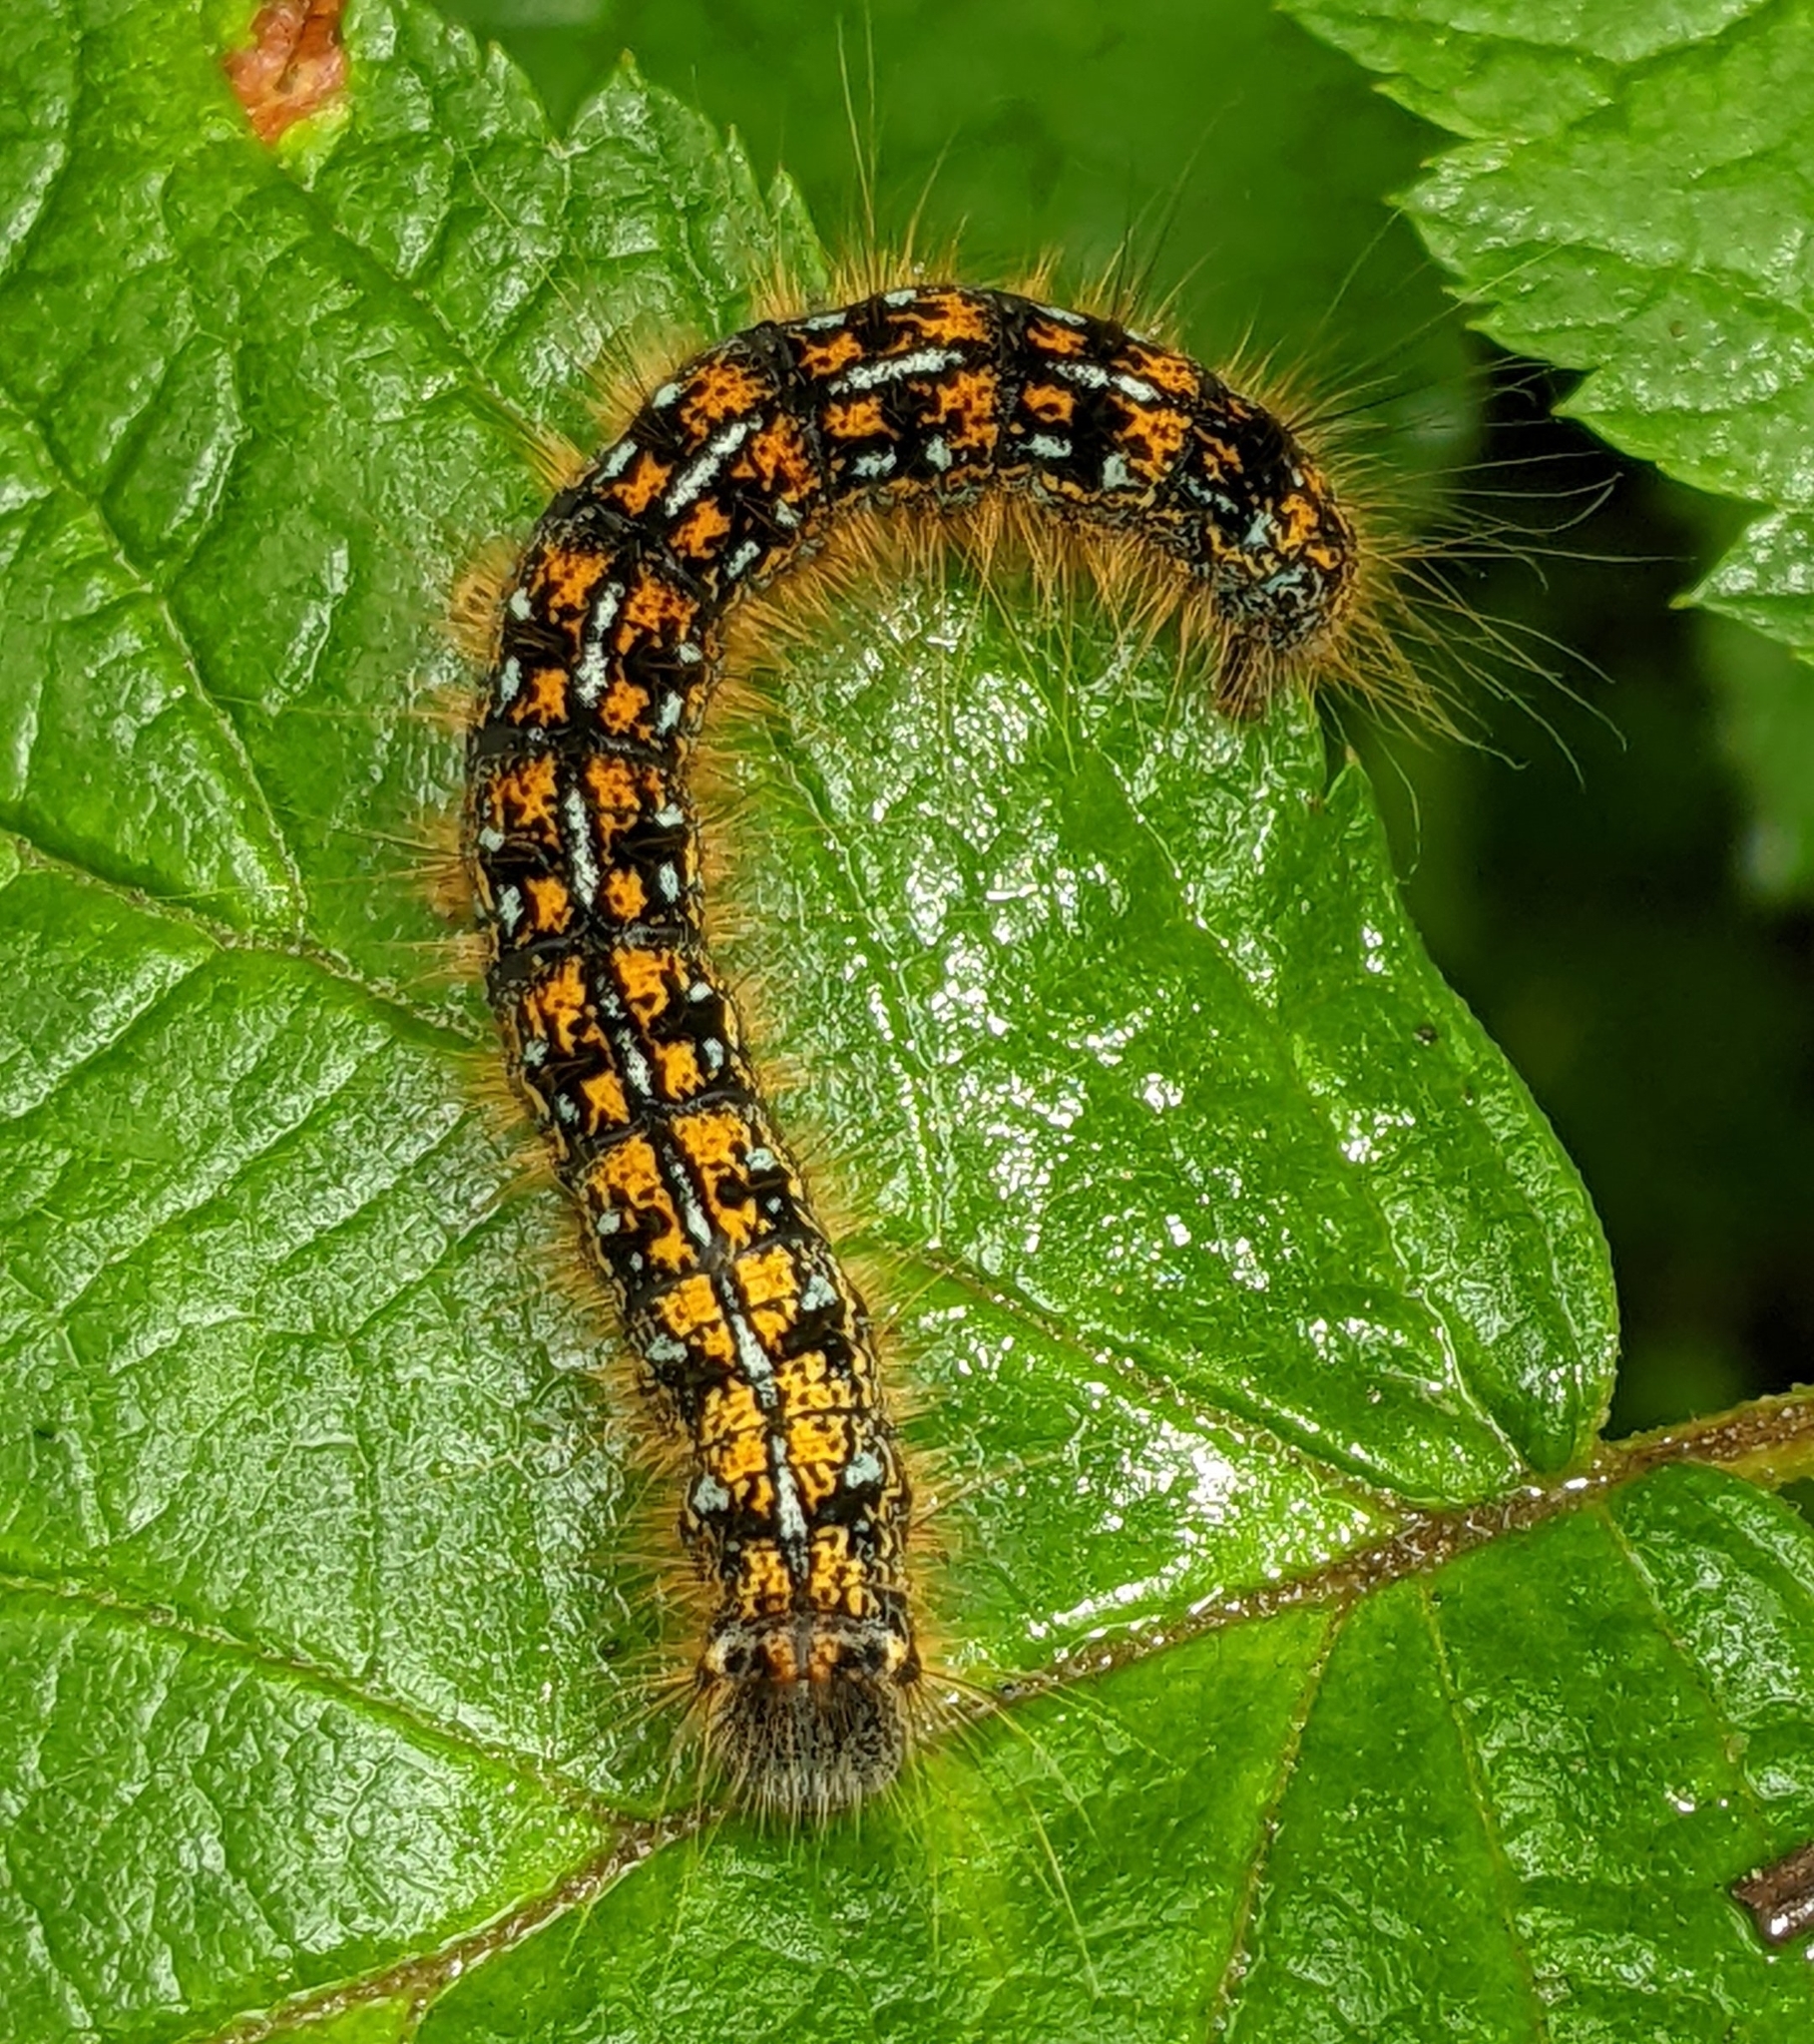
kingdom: Animalia
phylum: Arthropoda
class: Insecta
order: Lepidoptera
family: Lasiocampidae
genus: Malacosoma
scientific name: Malacosoma californica
